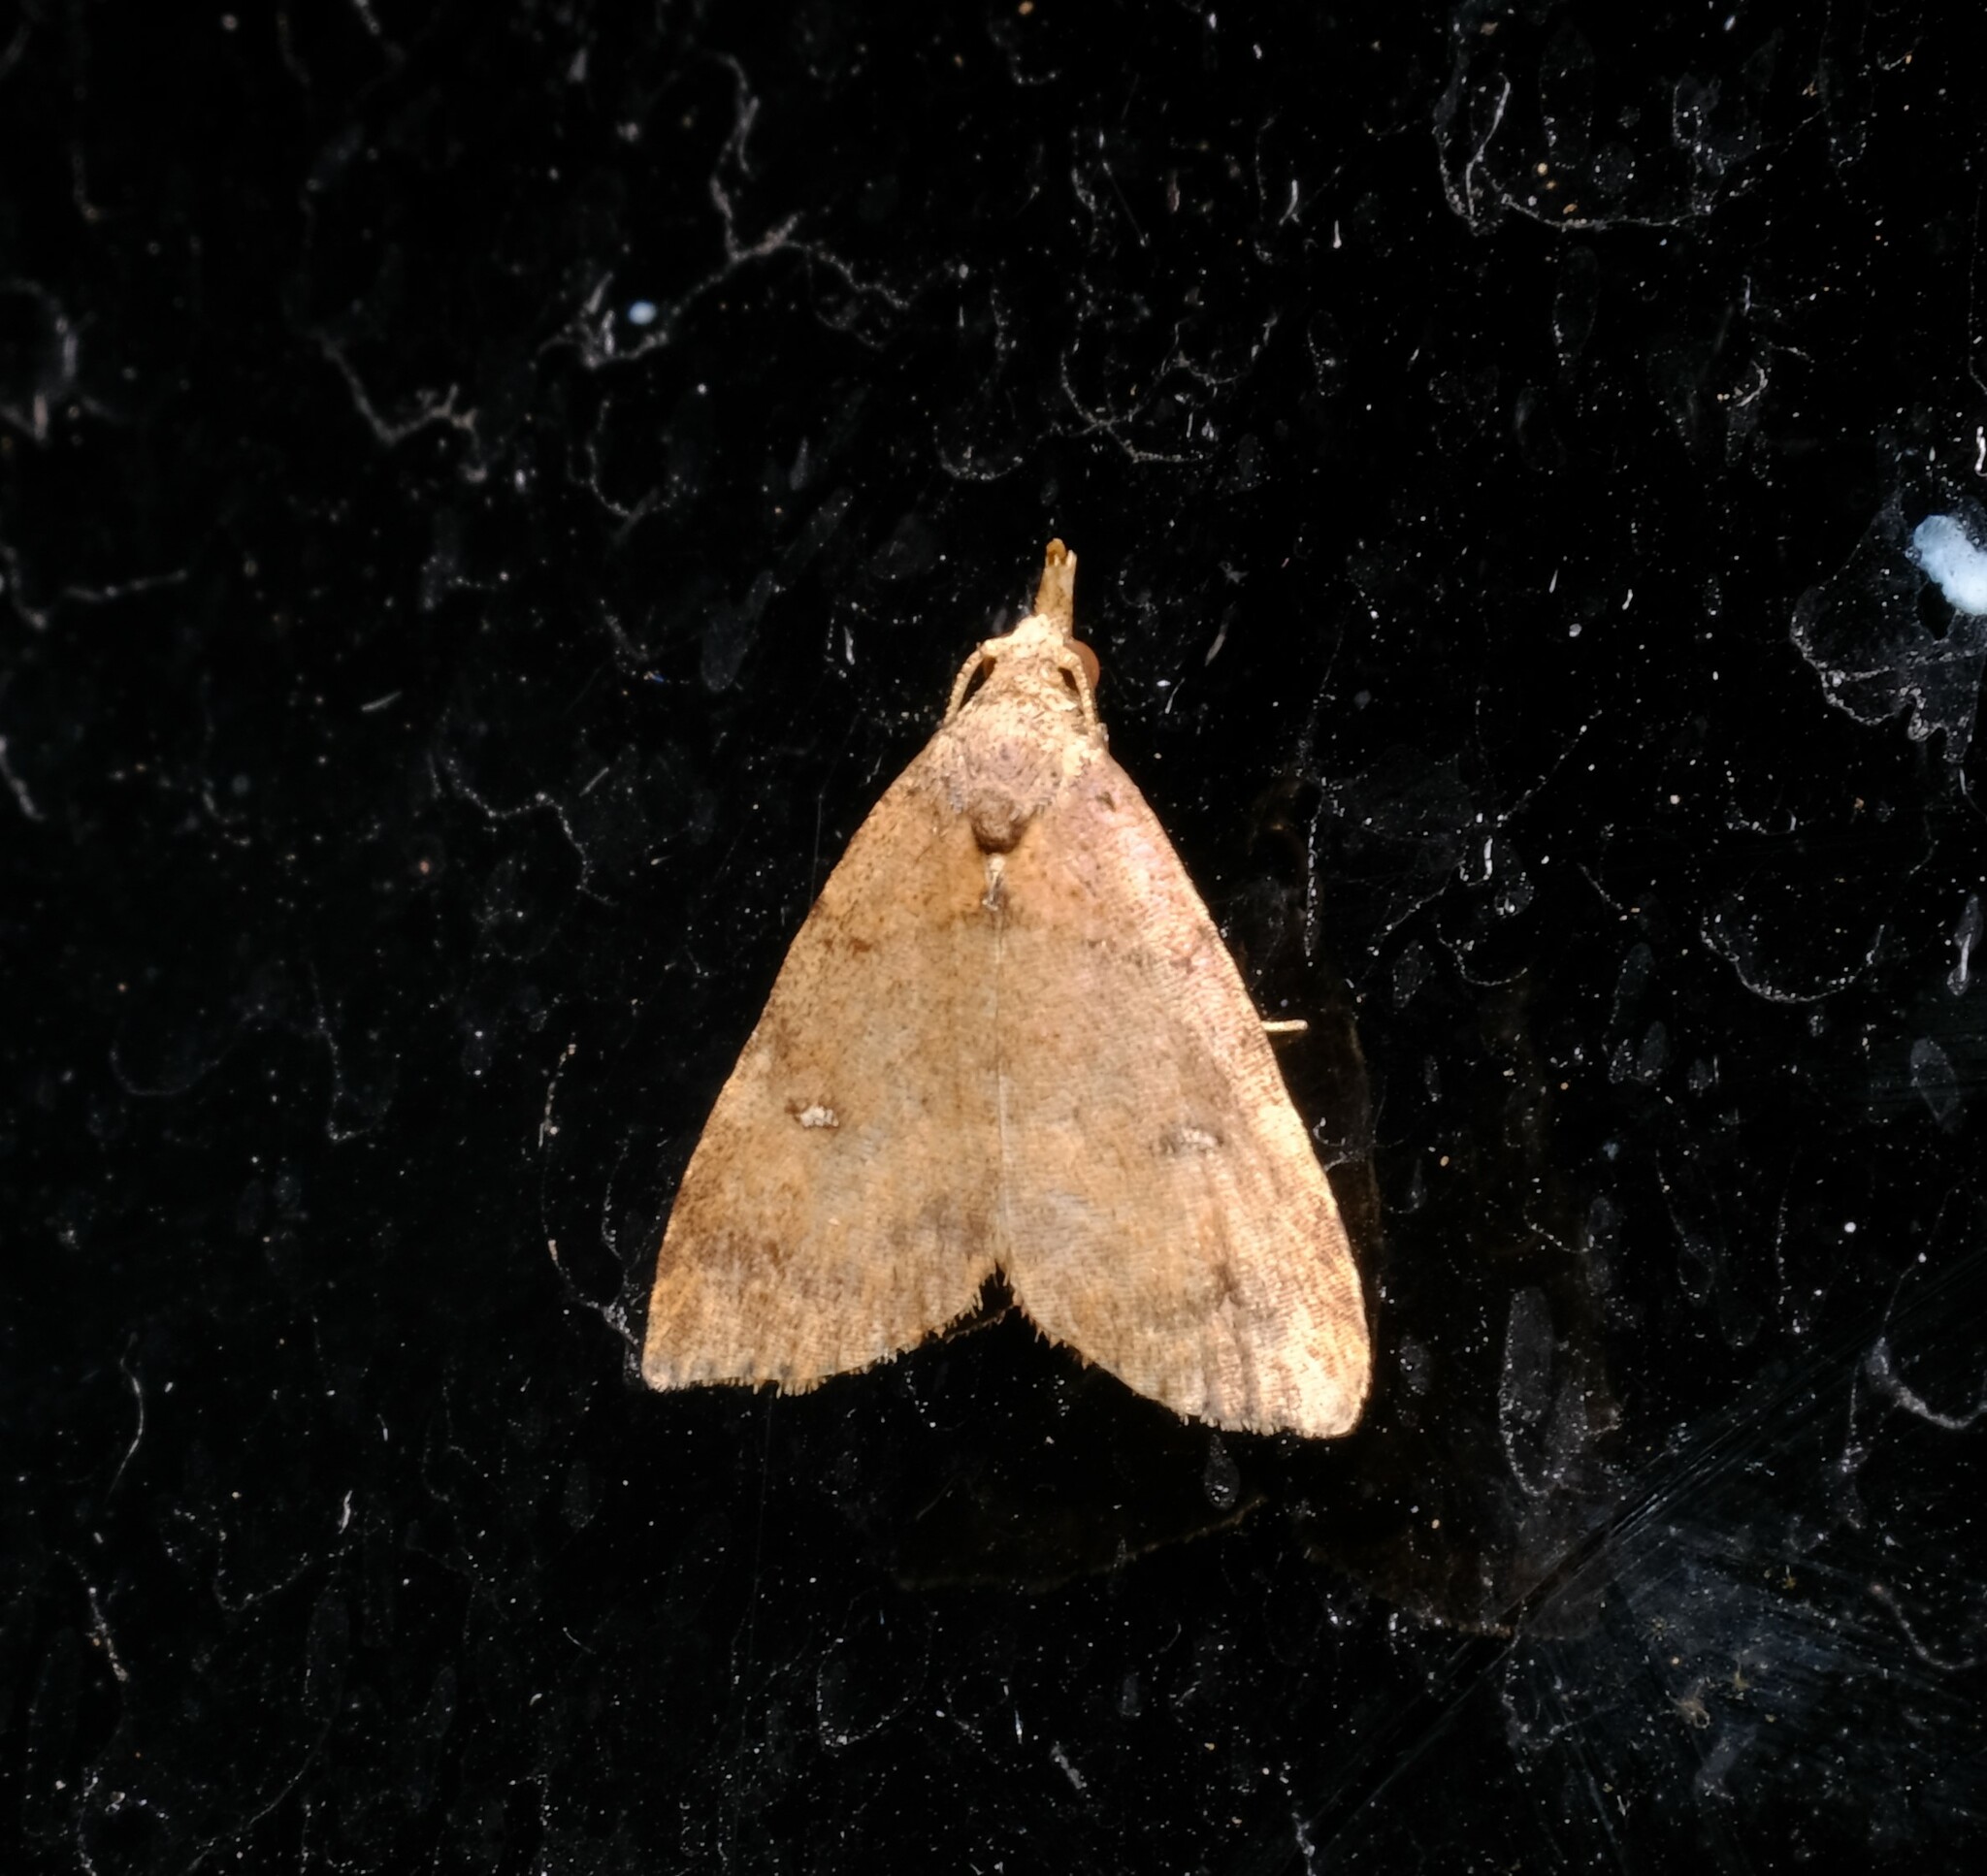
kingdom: Animalia
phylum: Arthropoda
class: Insecta
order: Lepidoptera
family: Erebidae
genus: Alapadna
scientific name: Alapadna pauropis
